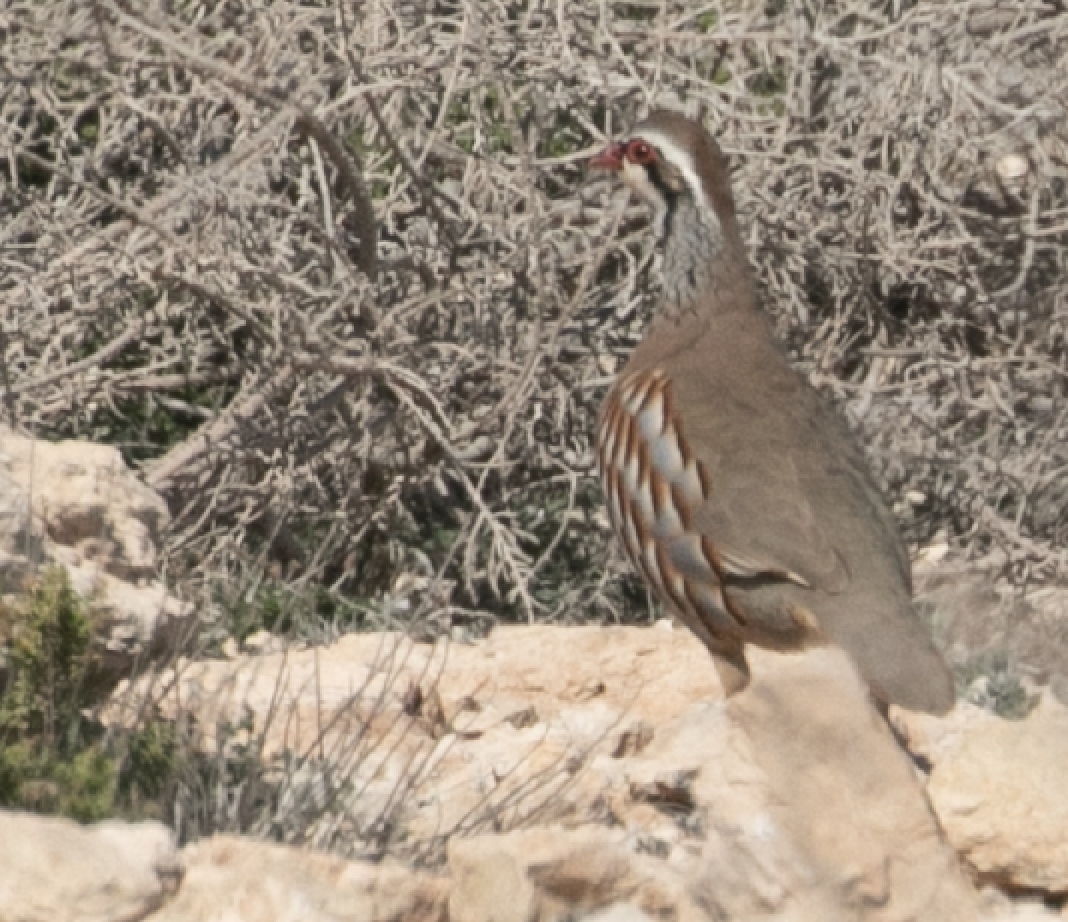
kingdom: Animalia
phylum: Chordata
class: Aves
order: Galliformes
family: Phasianidae
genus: Alectoris
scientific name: Alectoris rufa
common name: Red-legged partridge
